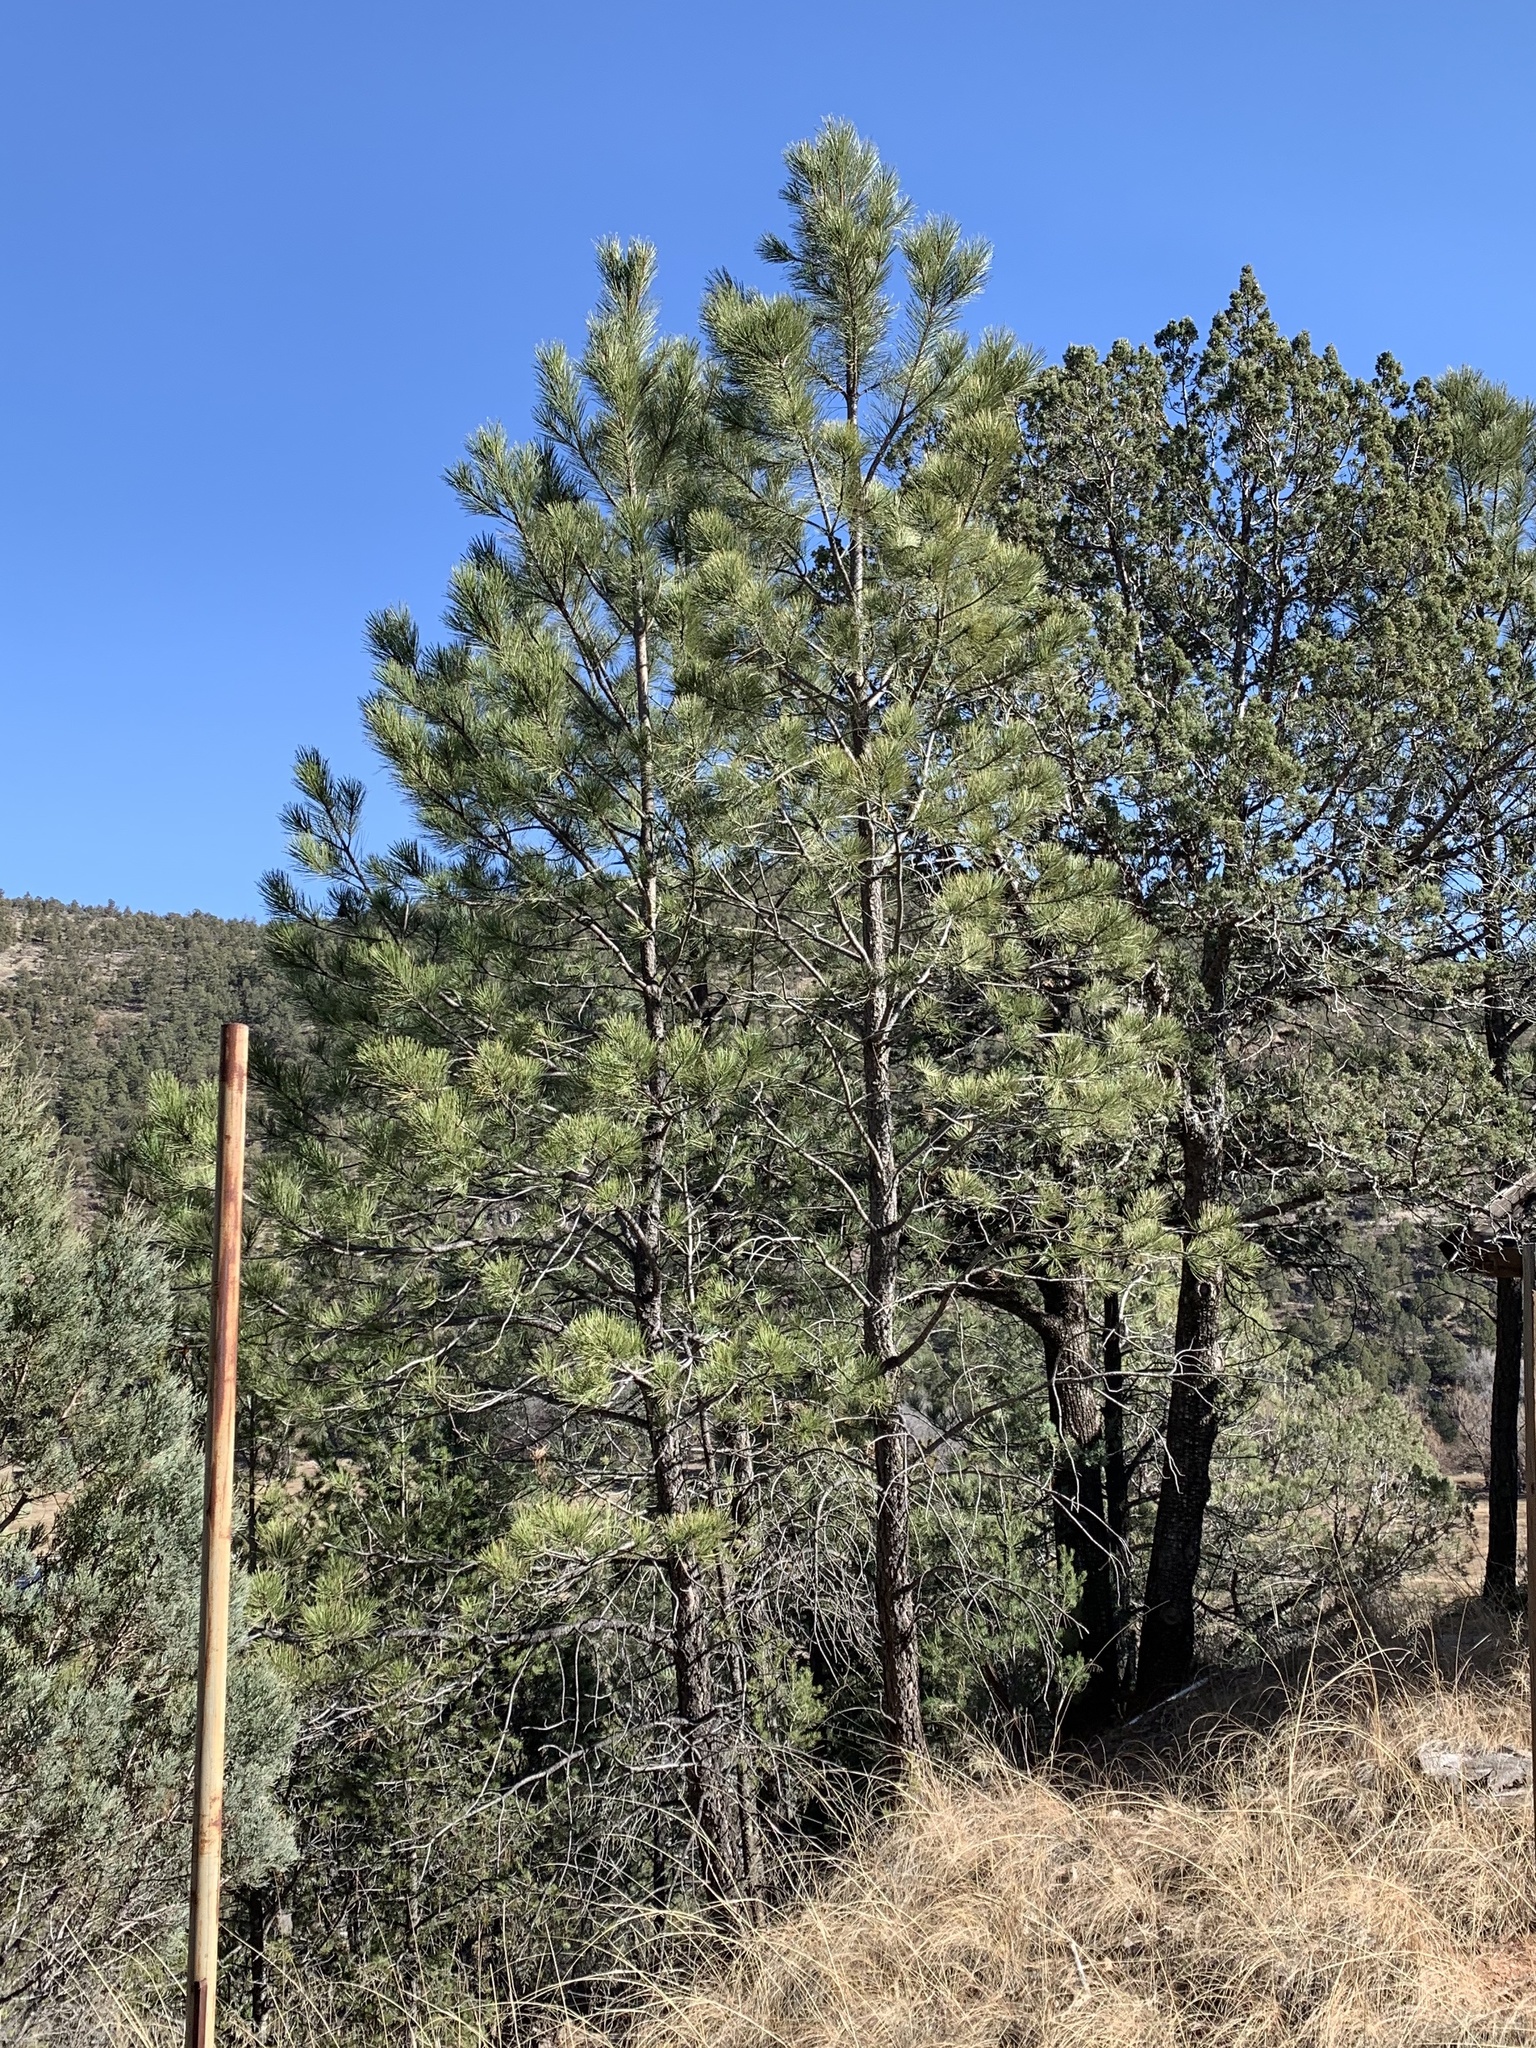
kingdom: Plantae
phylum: Tracheophyta
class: Pinopsida
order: Pinales
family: Pinaceae
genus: Pinus
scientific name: Pinus ponderosa
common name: Western yellow-pine
